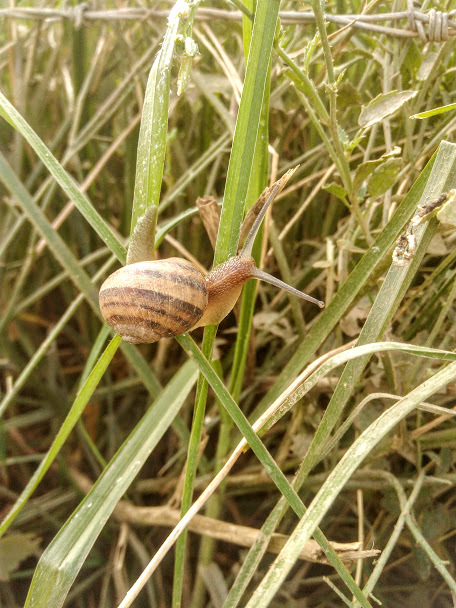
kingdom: Animalia
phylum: Mollusca
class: Gastropoda
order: Stylommatophora
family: Helicidae
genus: Cornu
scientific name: Cornu aspersum
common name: Brown garden snail
